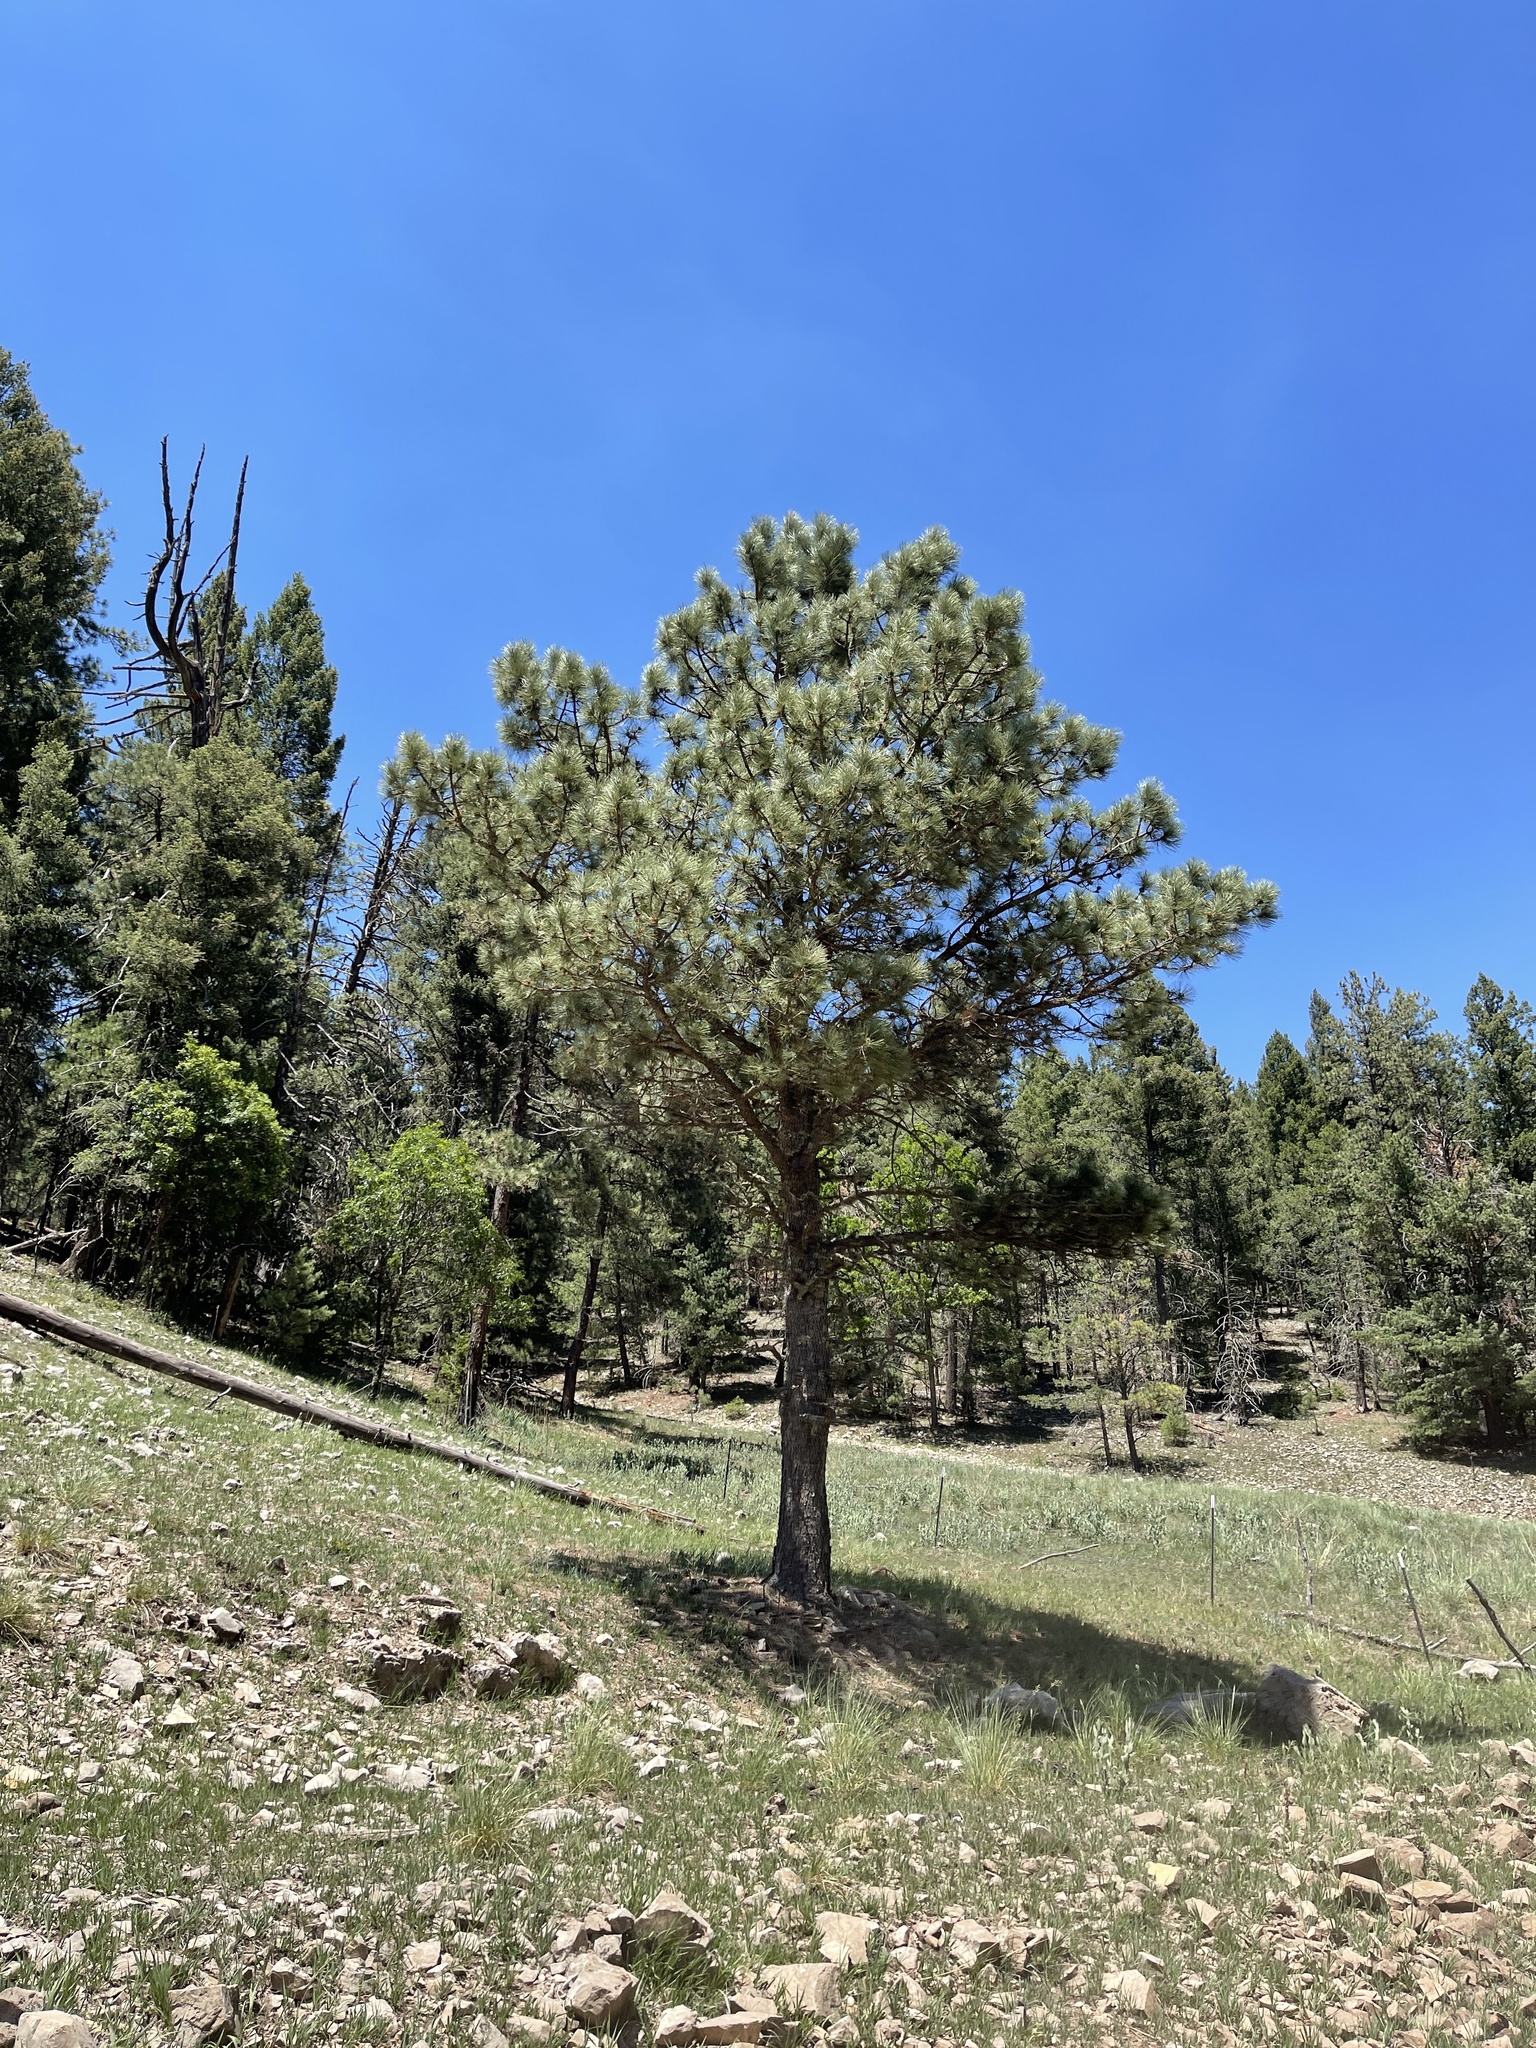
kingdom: Plantae
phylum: Tracheophyta
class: Pinopsida
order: Pinales
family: Pinaceae
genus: Pinus
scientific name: Pinus ponderosa
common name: Western yellow-pine
